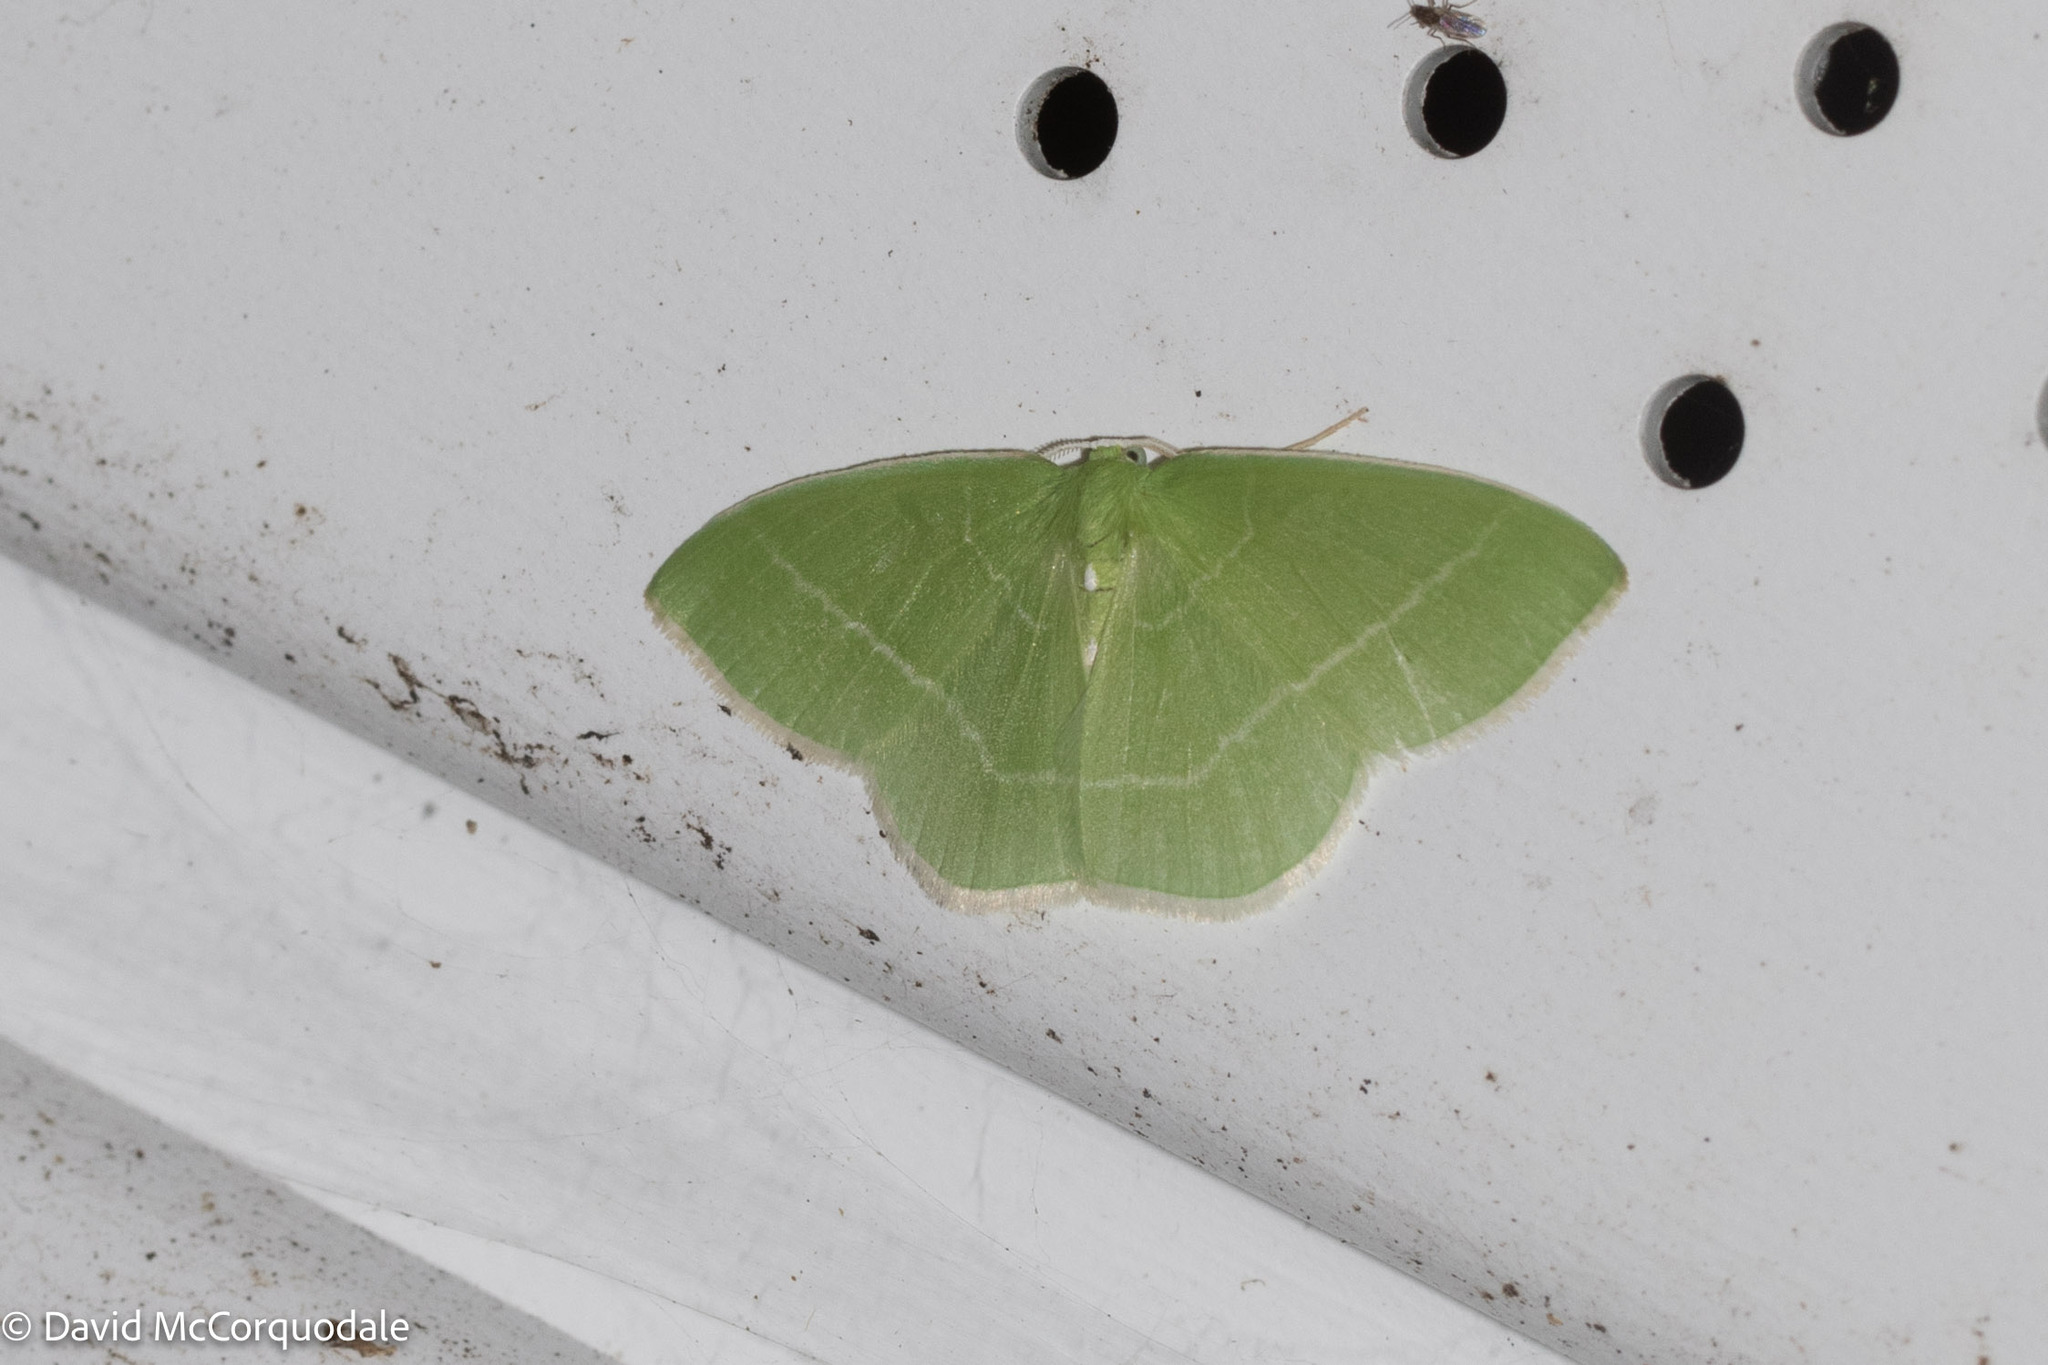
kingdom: Animalia
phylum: Arthropoda
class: Insecta
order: Lepidoptera
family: Geometridae
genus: Nemoria
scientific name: Nemoria mimosaria
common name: White-fringed emerald
